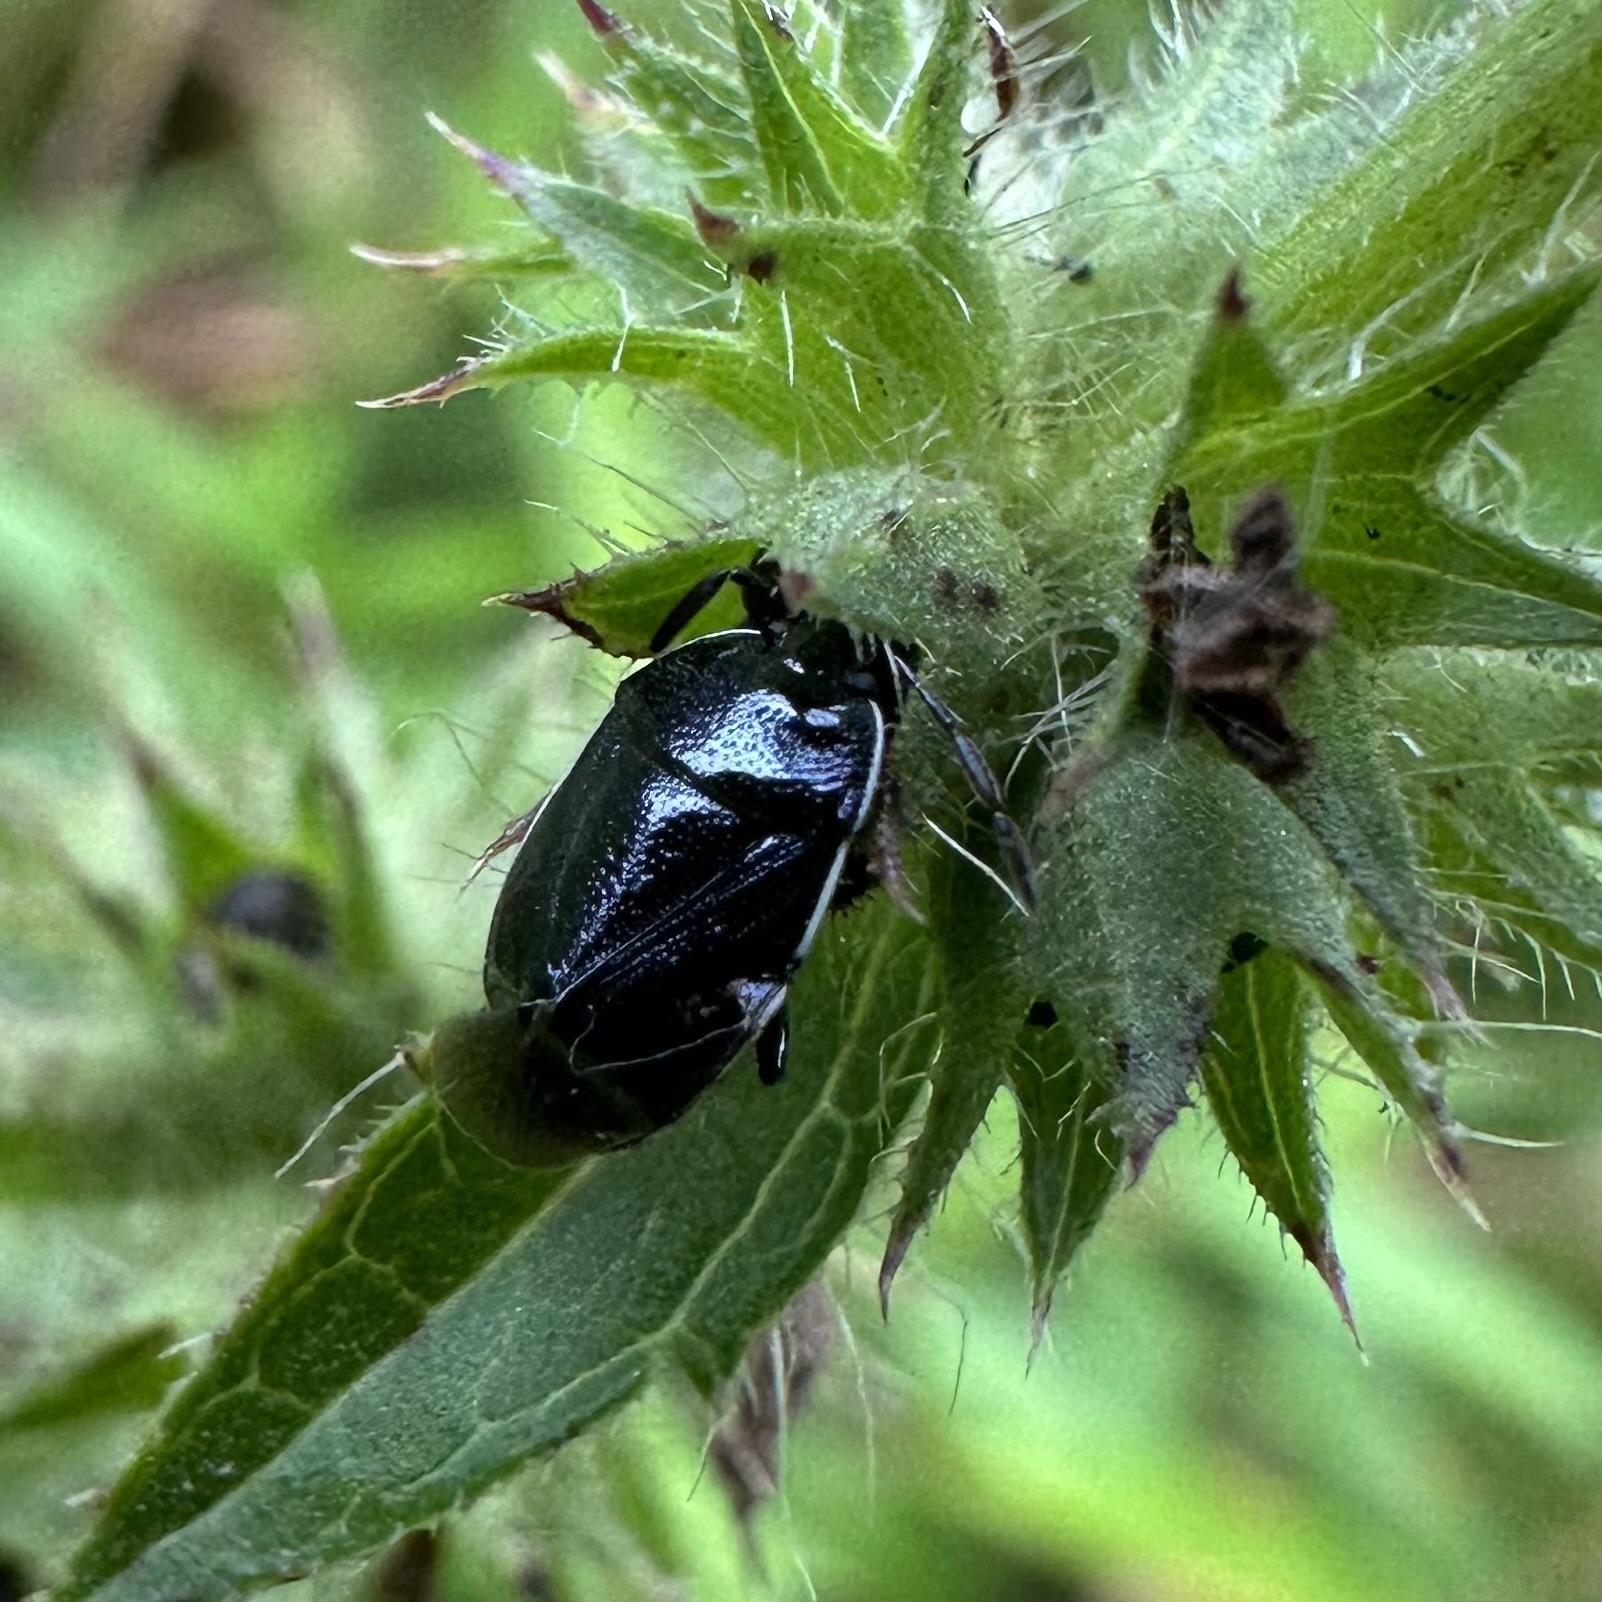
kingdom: Animalia
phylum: Arthropoda
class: Insecta
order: Hemiptera
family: Cydnidae
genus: Sehirus
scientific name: Sehirus cinctus
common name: White-margined burrower bug
